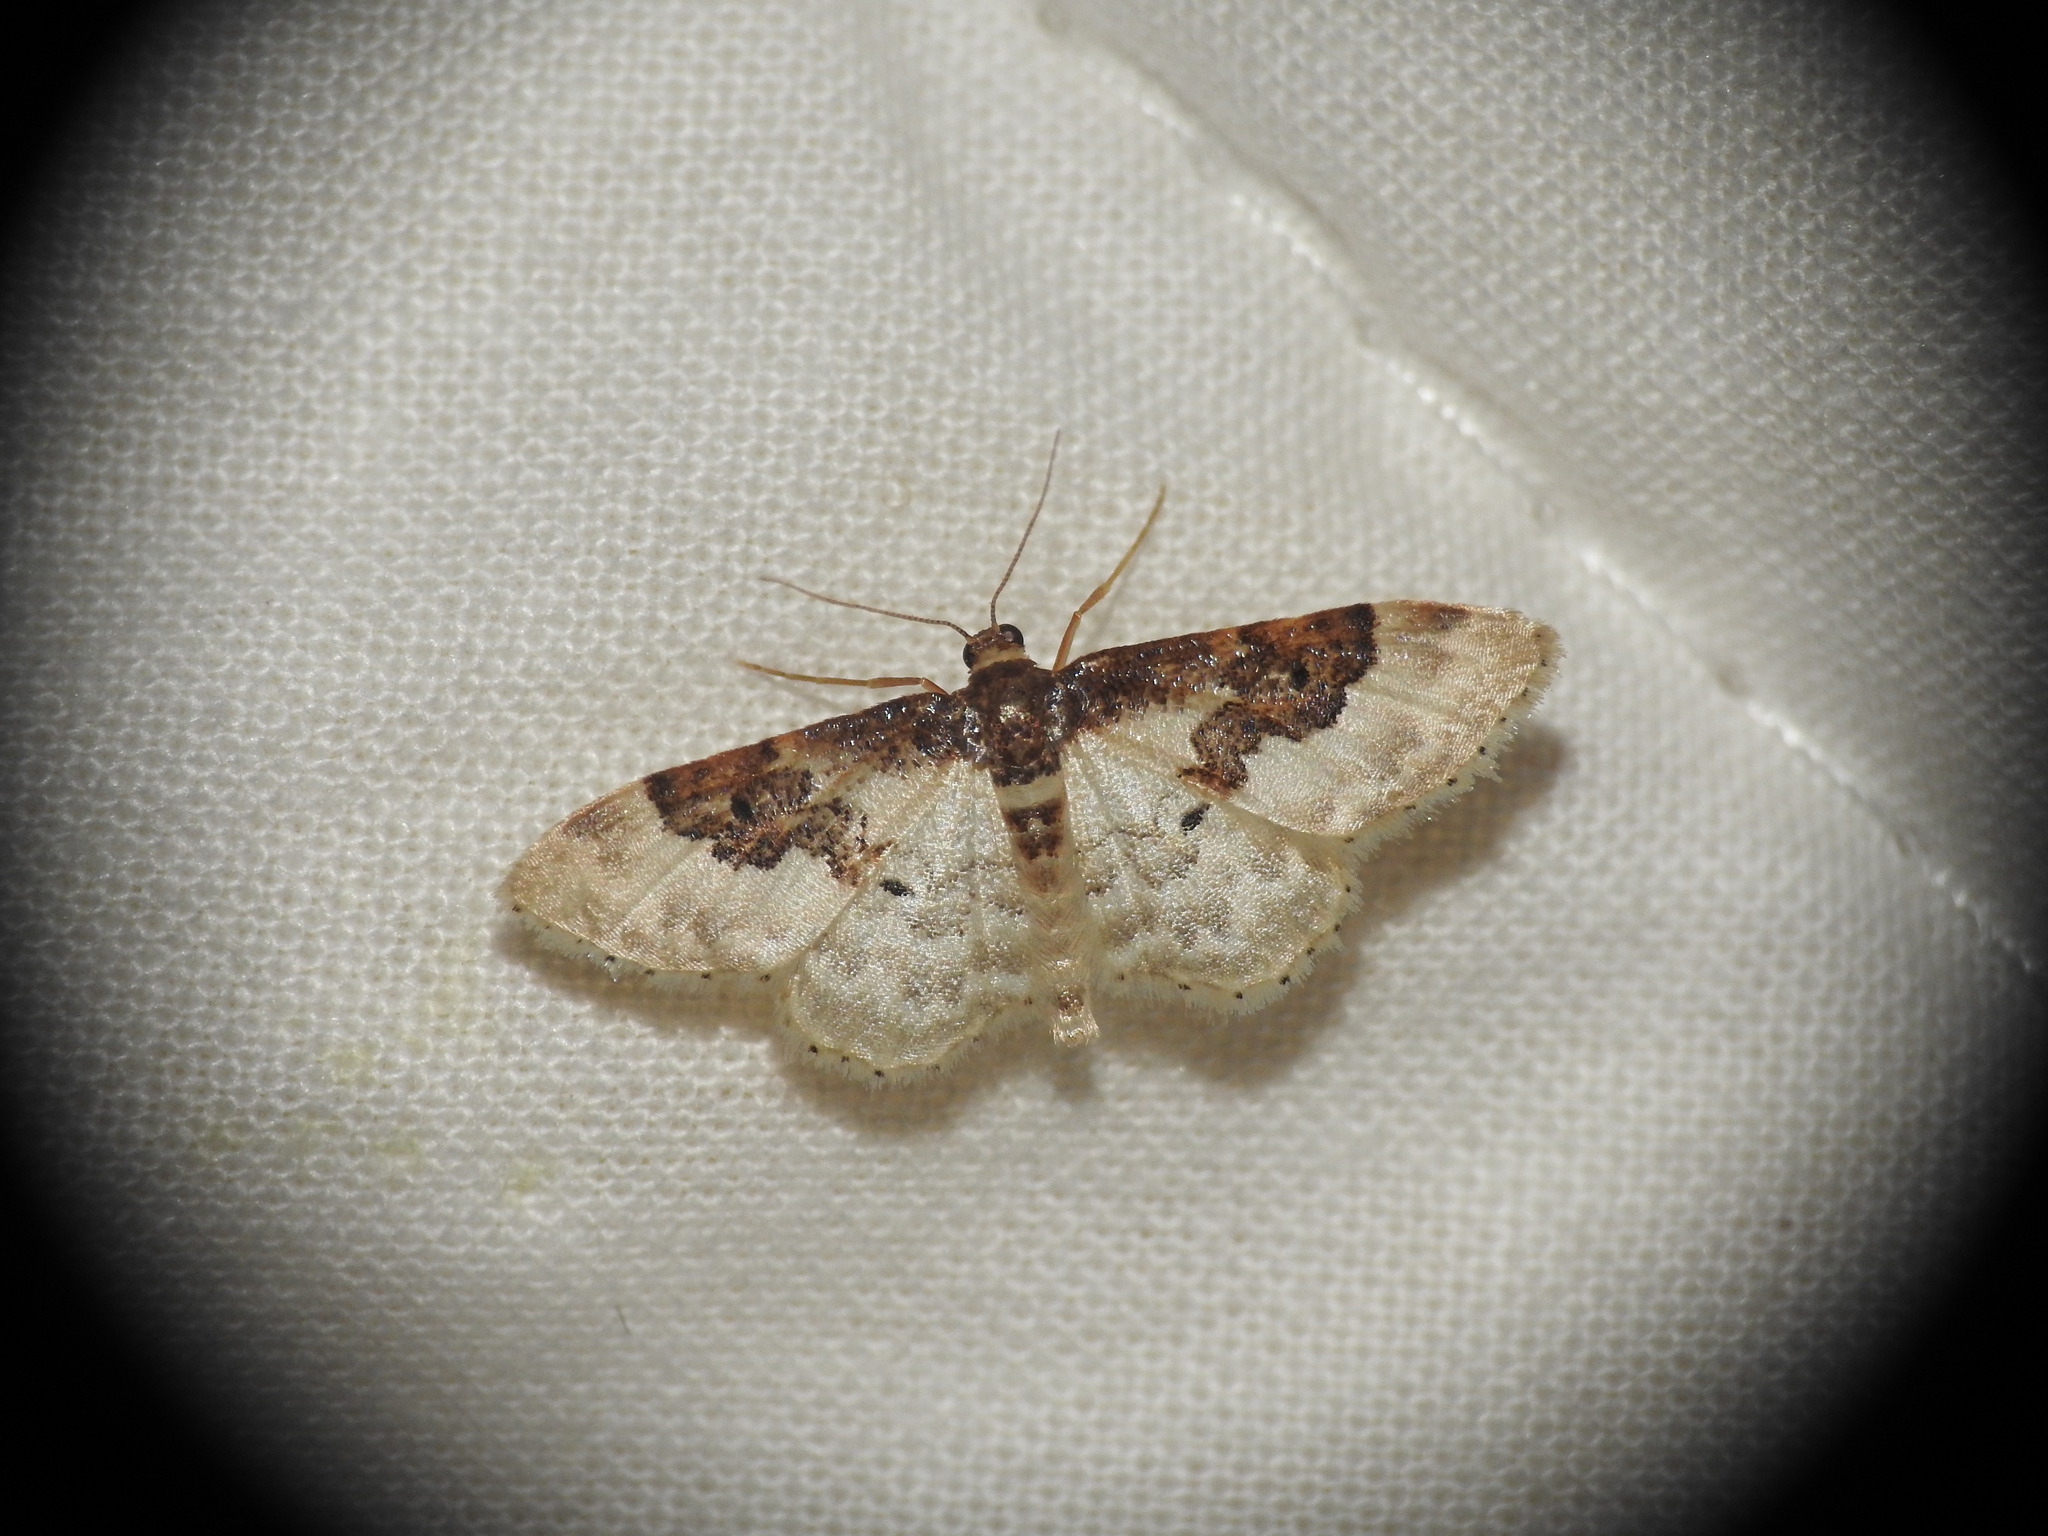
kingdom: Animalia
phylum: Arthropoda
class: Insecta
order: Lepidoptera
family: Geometridae
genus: Idaea
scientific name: Idaea rusticata
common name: Least carpet
